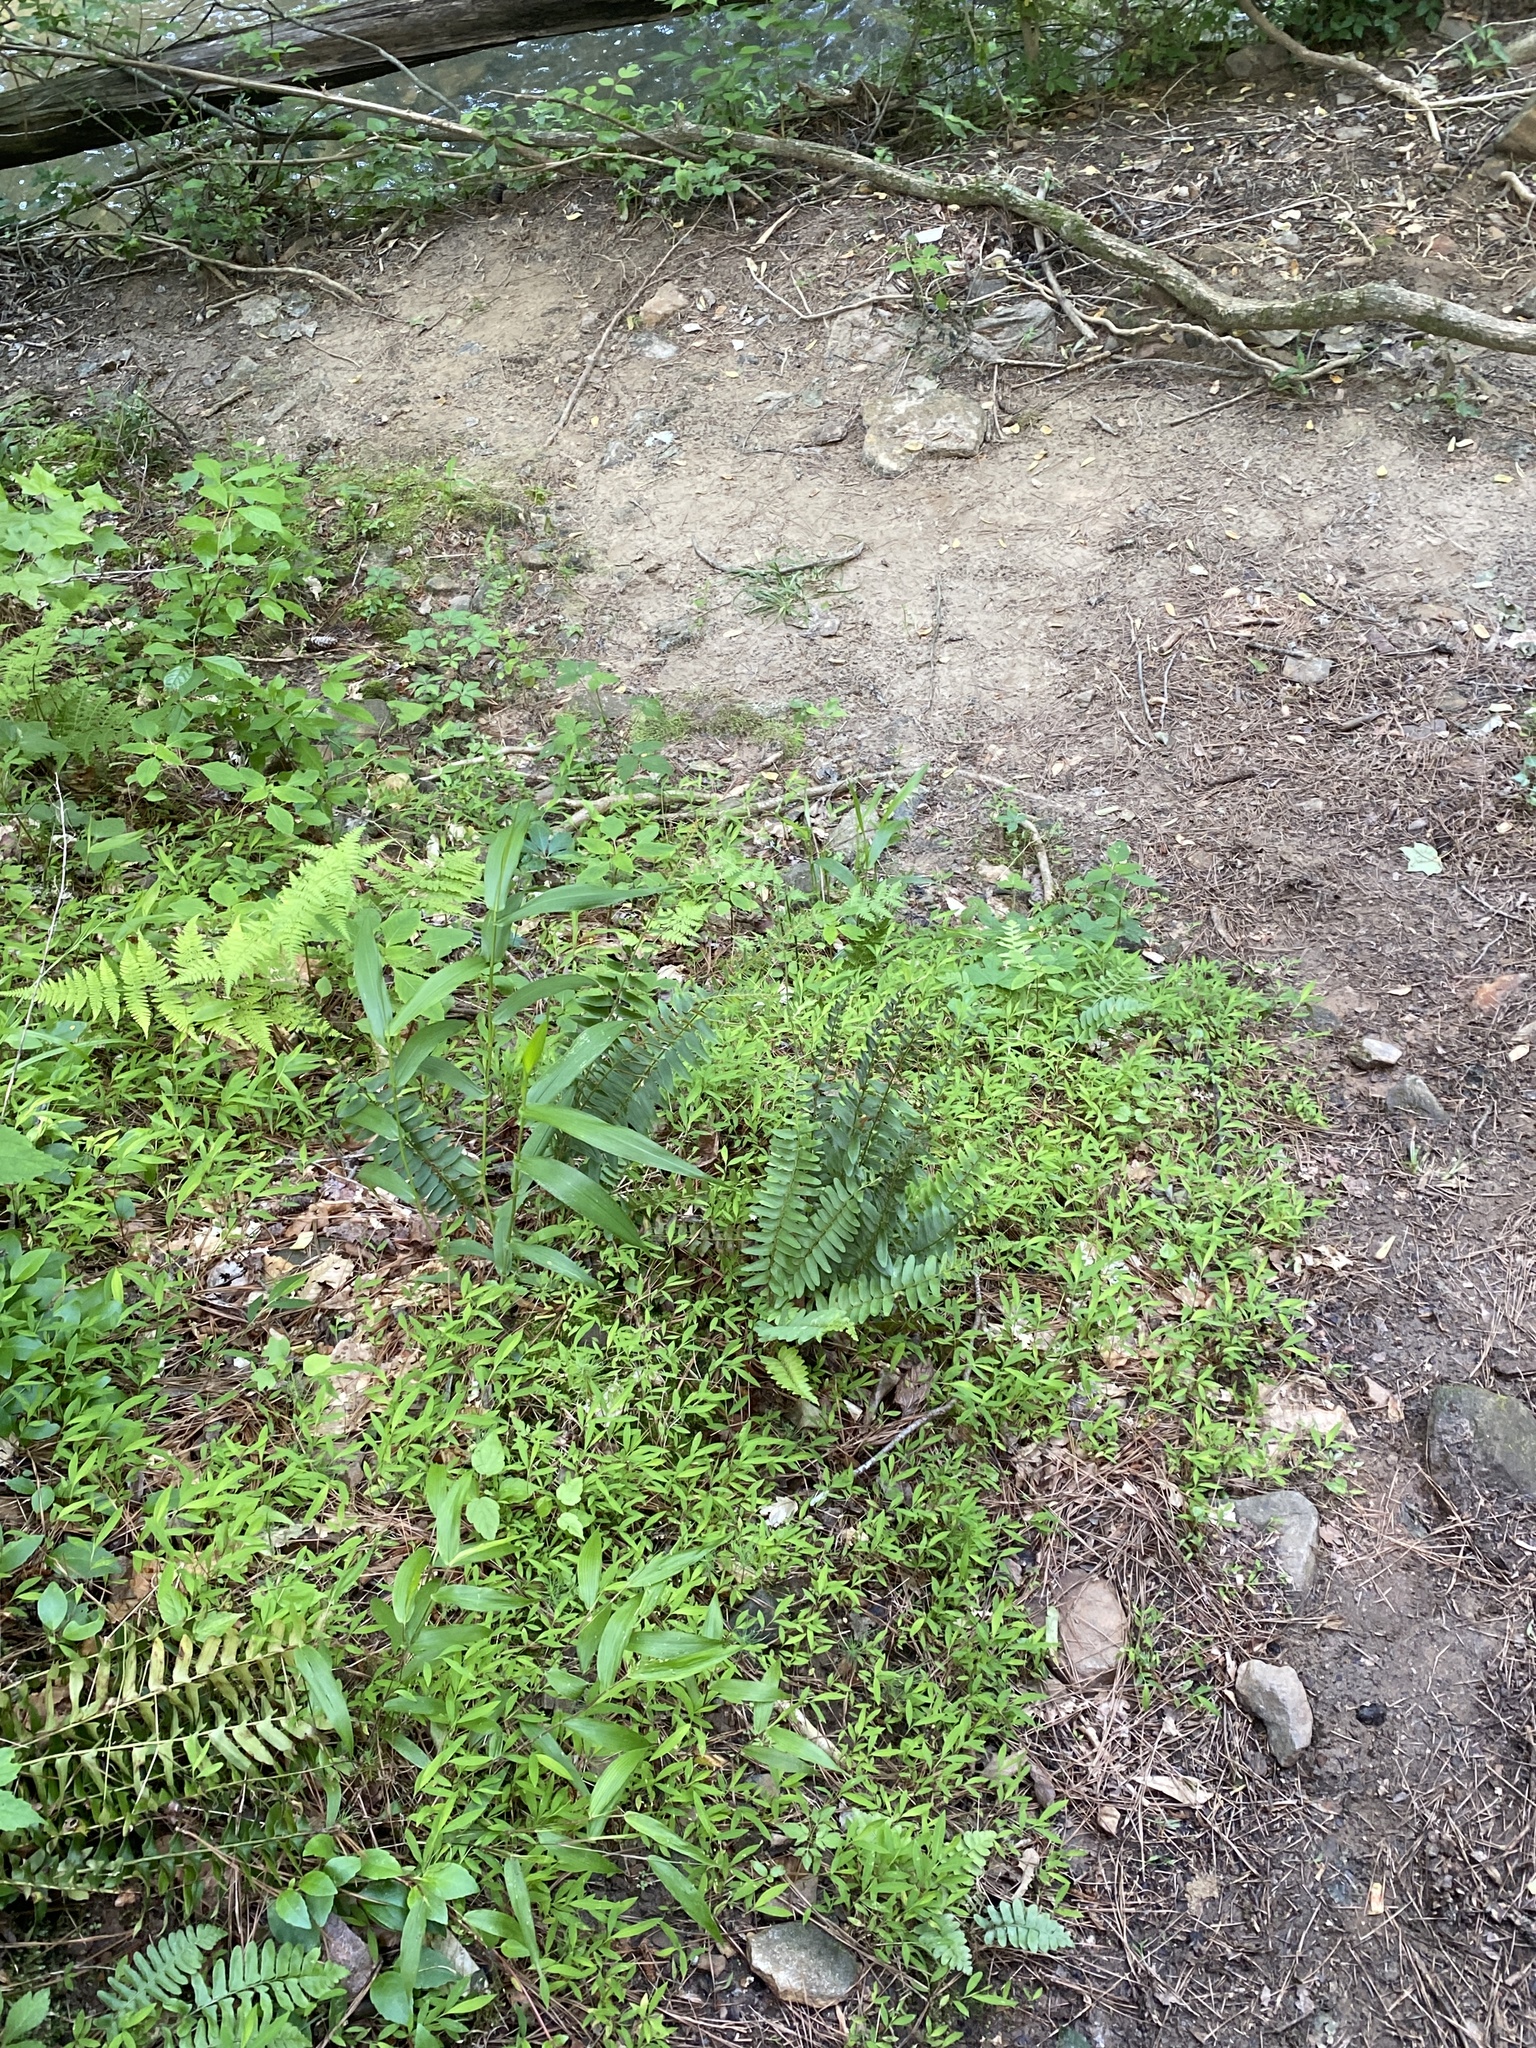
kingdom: Plantae
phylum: Tracheophyta
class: Liliopsida
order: Poales
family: Poaceae
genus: Microstegium
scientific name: Microstegium vimineum
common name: Japanese stiltgrass
